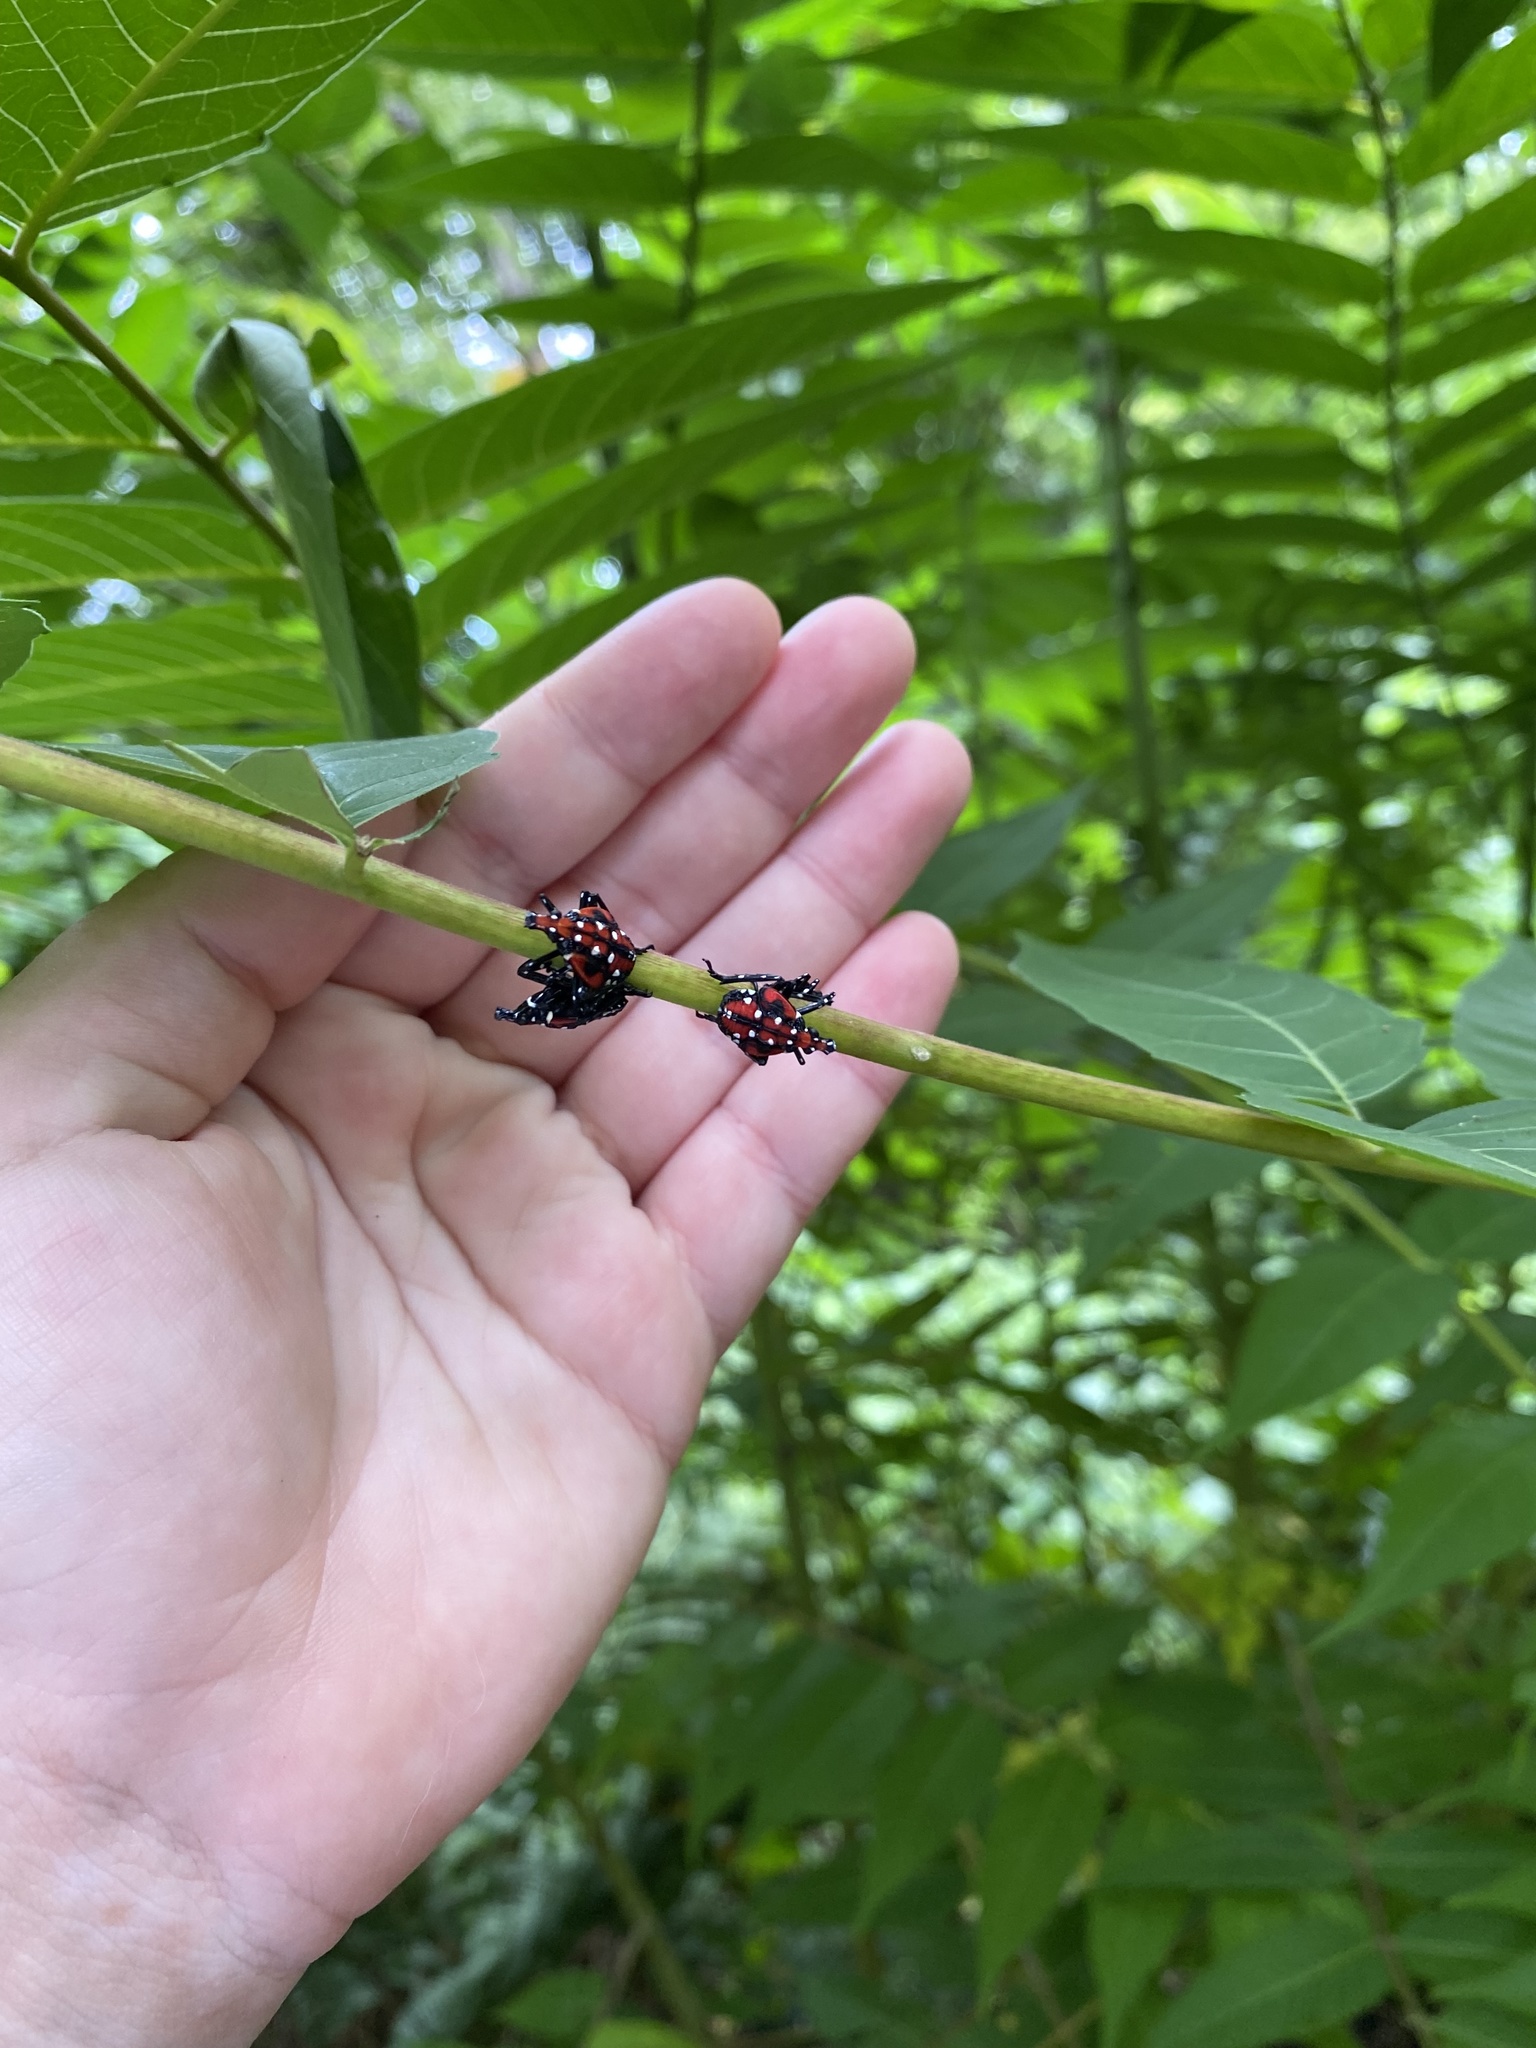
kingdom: Animalia
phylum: Arthropoda
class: Insecta
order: Hemiptera
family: Fulgoridae
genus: Lycorma
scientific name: Lycorma delicatula
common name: Spotted lanternfly
